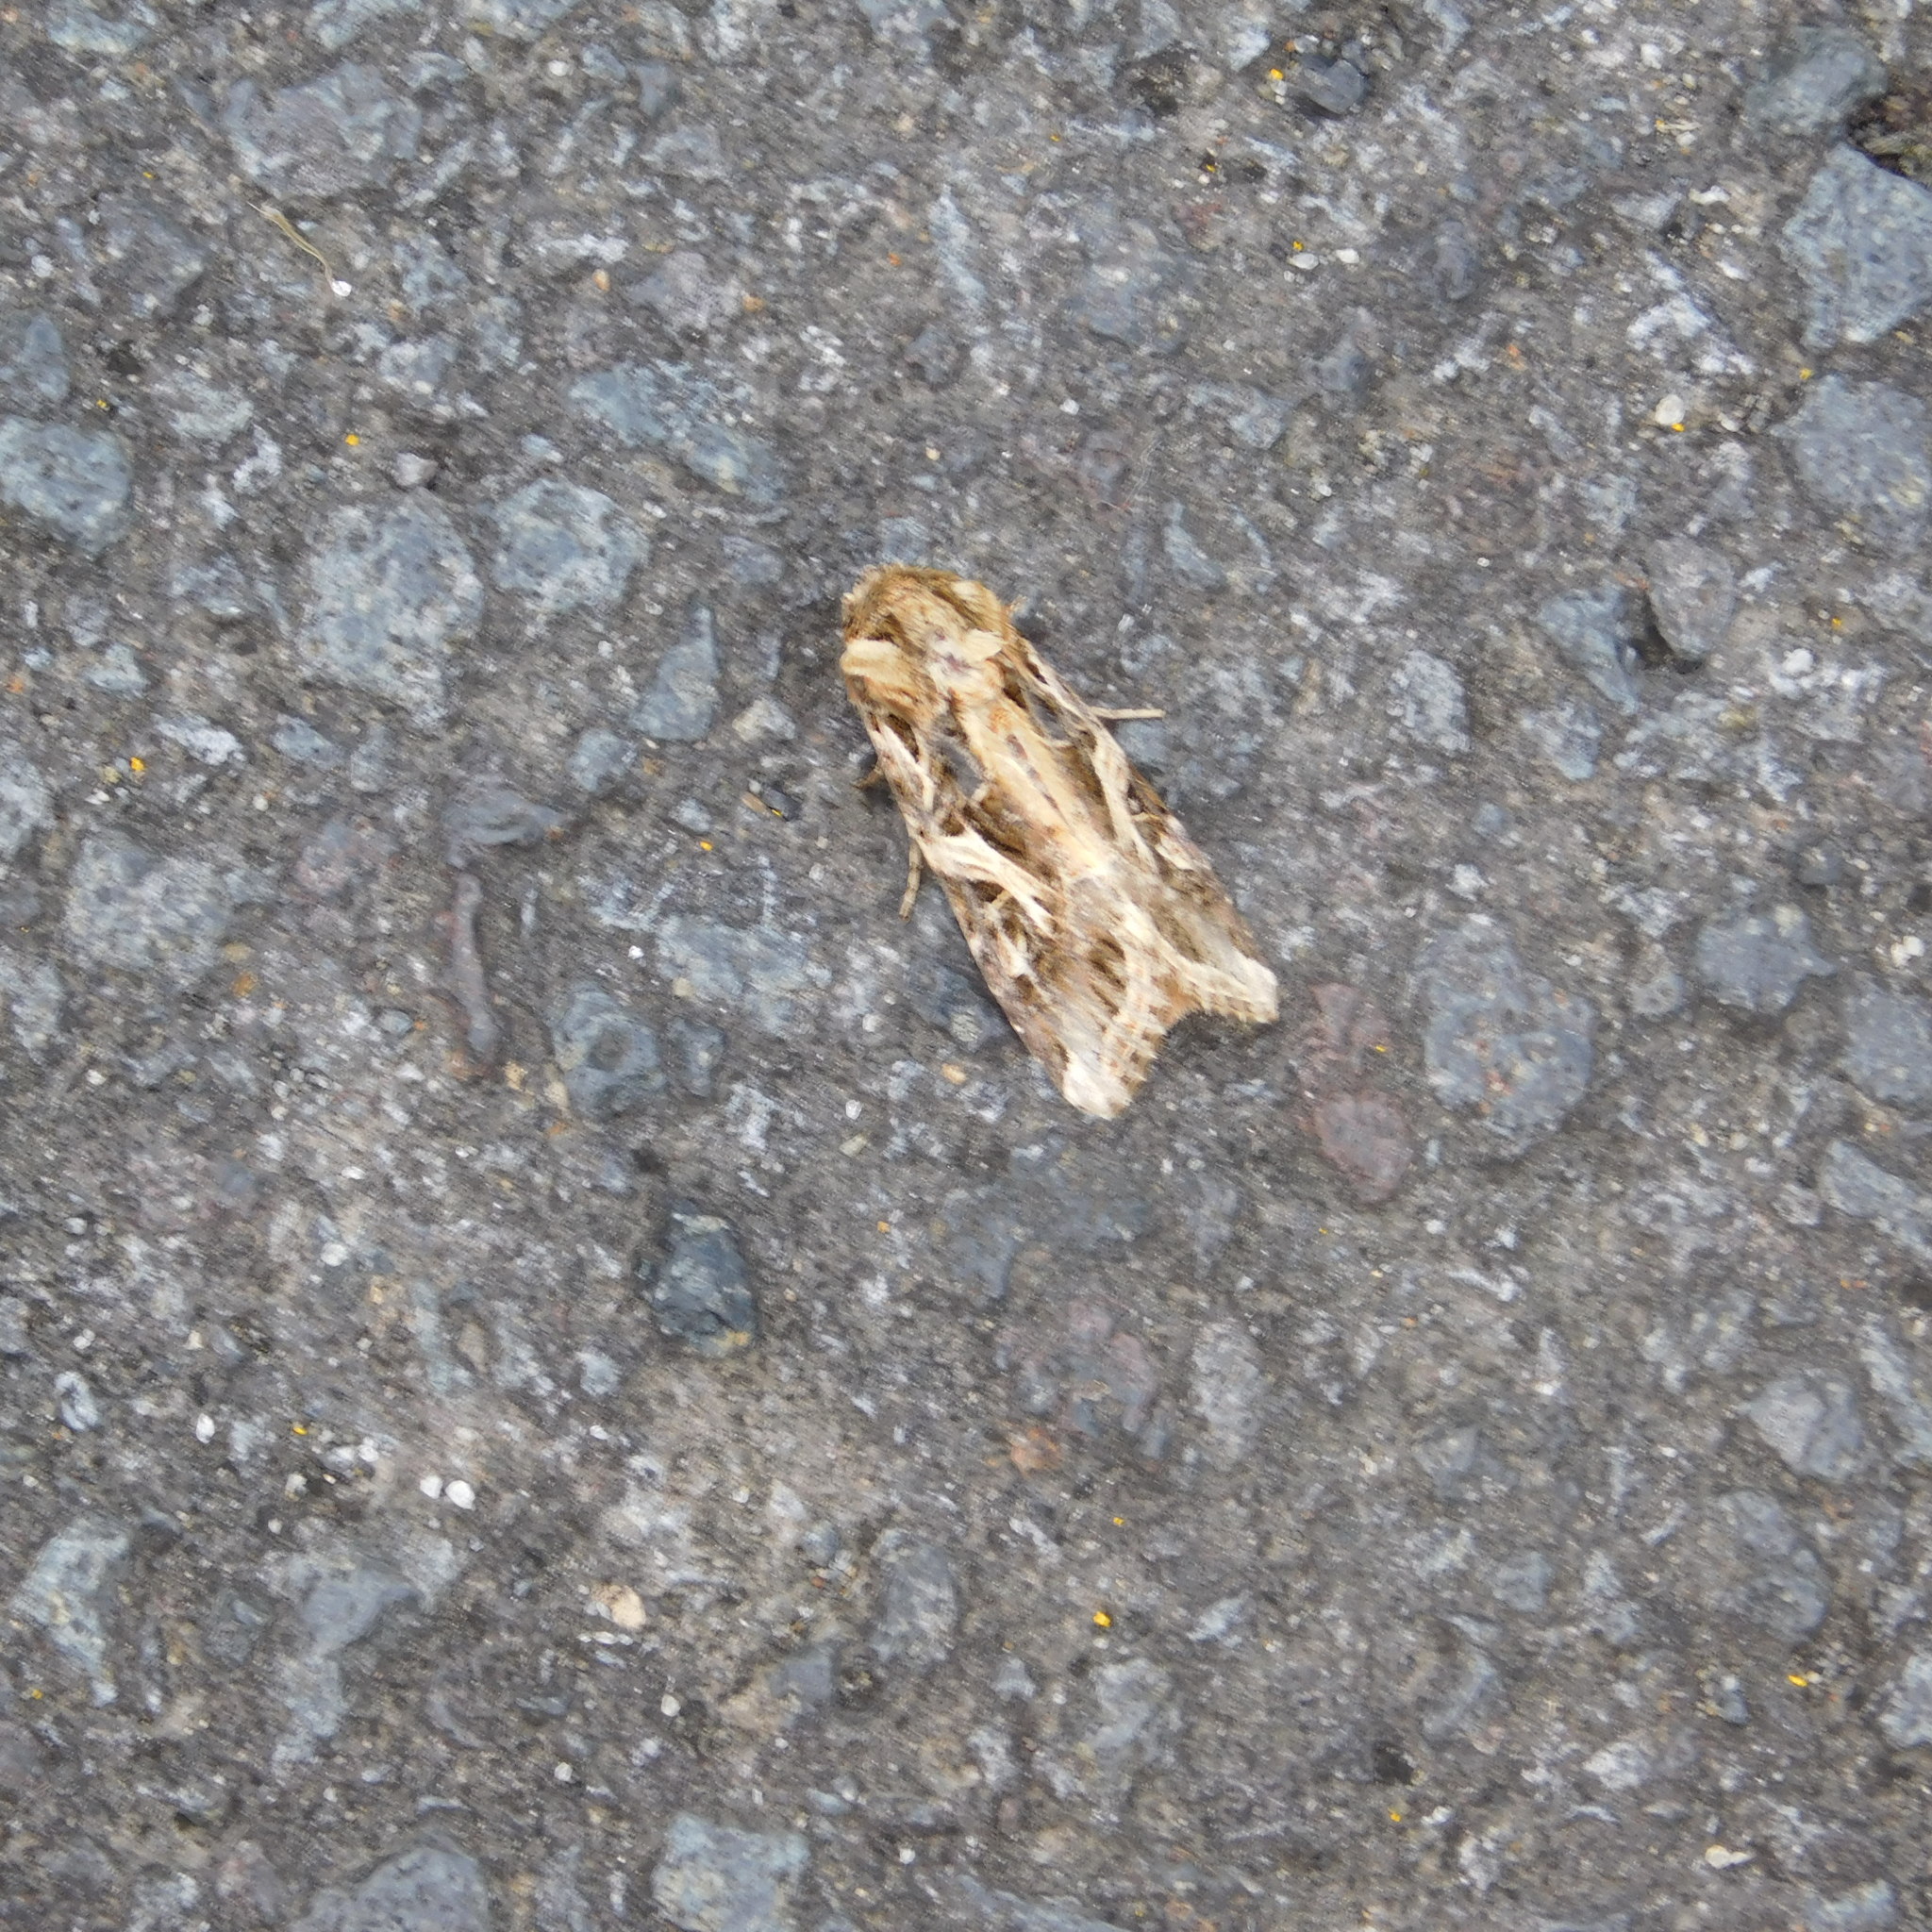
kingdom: Animalia
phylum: Arthropoda
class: Insecta
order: Lepidoptera
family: Noctuidae
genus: Spodoptera
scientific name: Spodoptera litura
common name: Asian cotton leafworm
